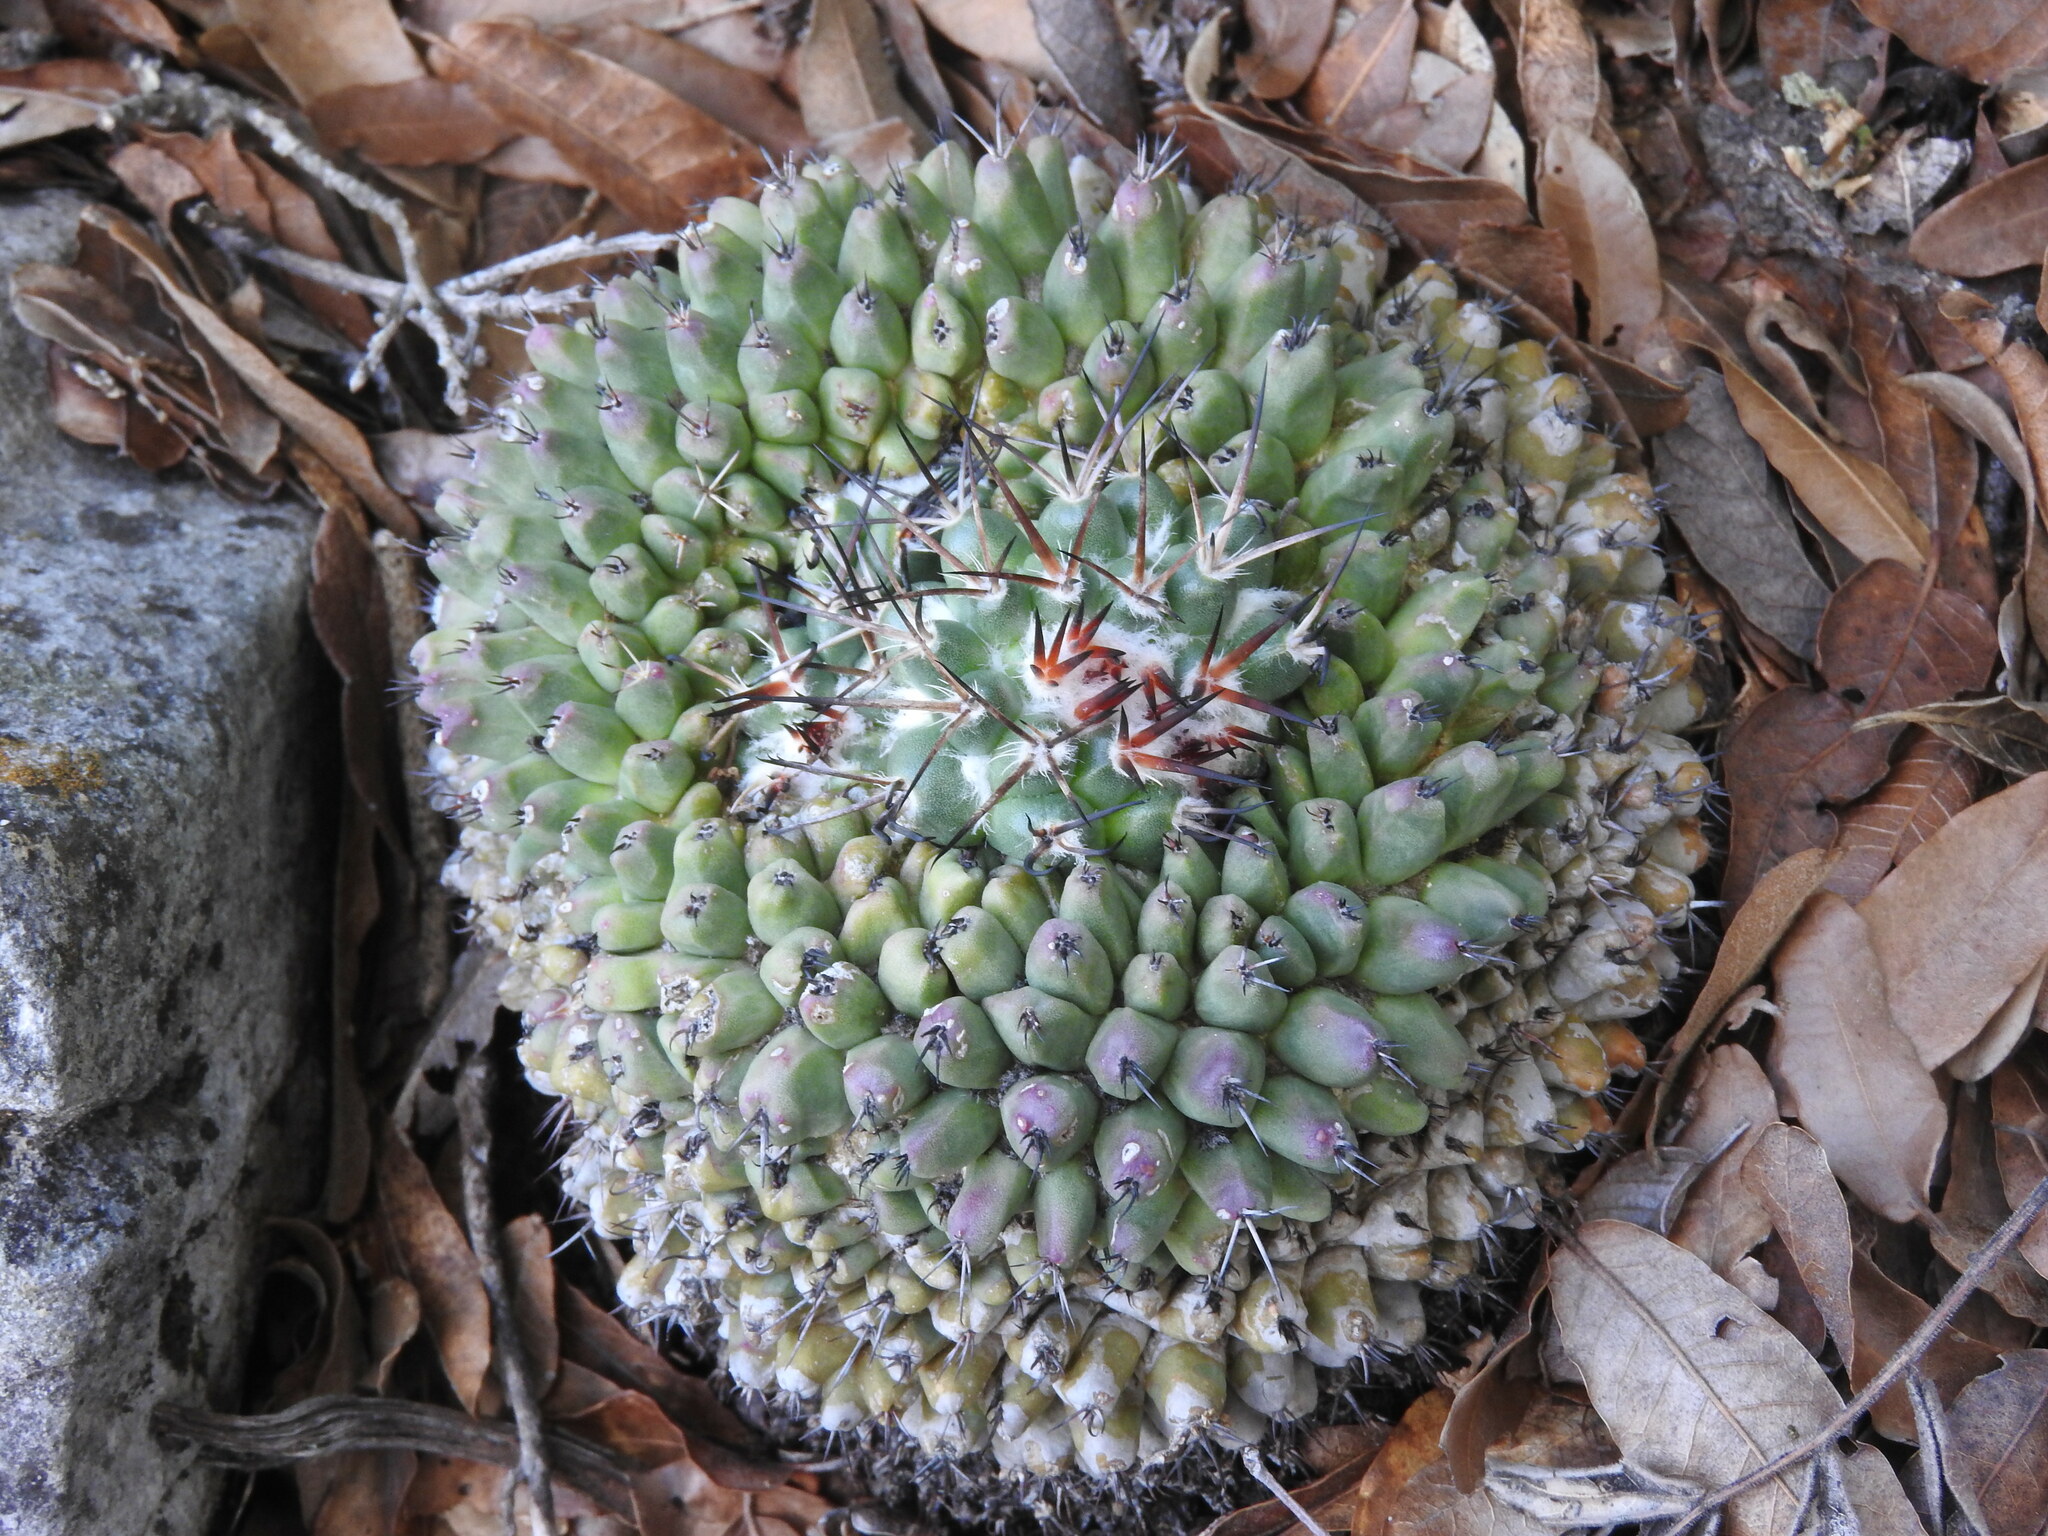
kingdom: Plantae
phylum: Tracheophyta
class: Magnoliopsida
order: Caryophyllales
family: Cactaceae
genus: Mammillaria
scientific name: Mammillaria orcuttii
